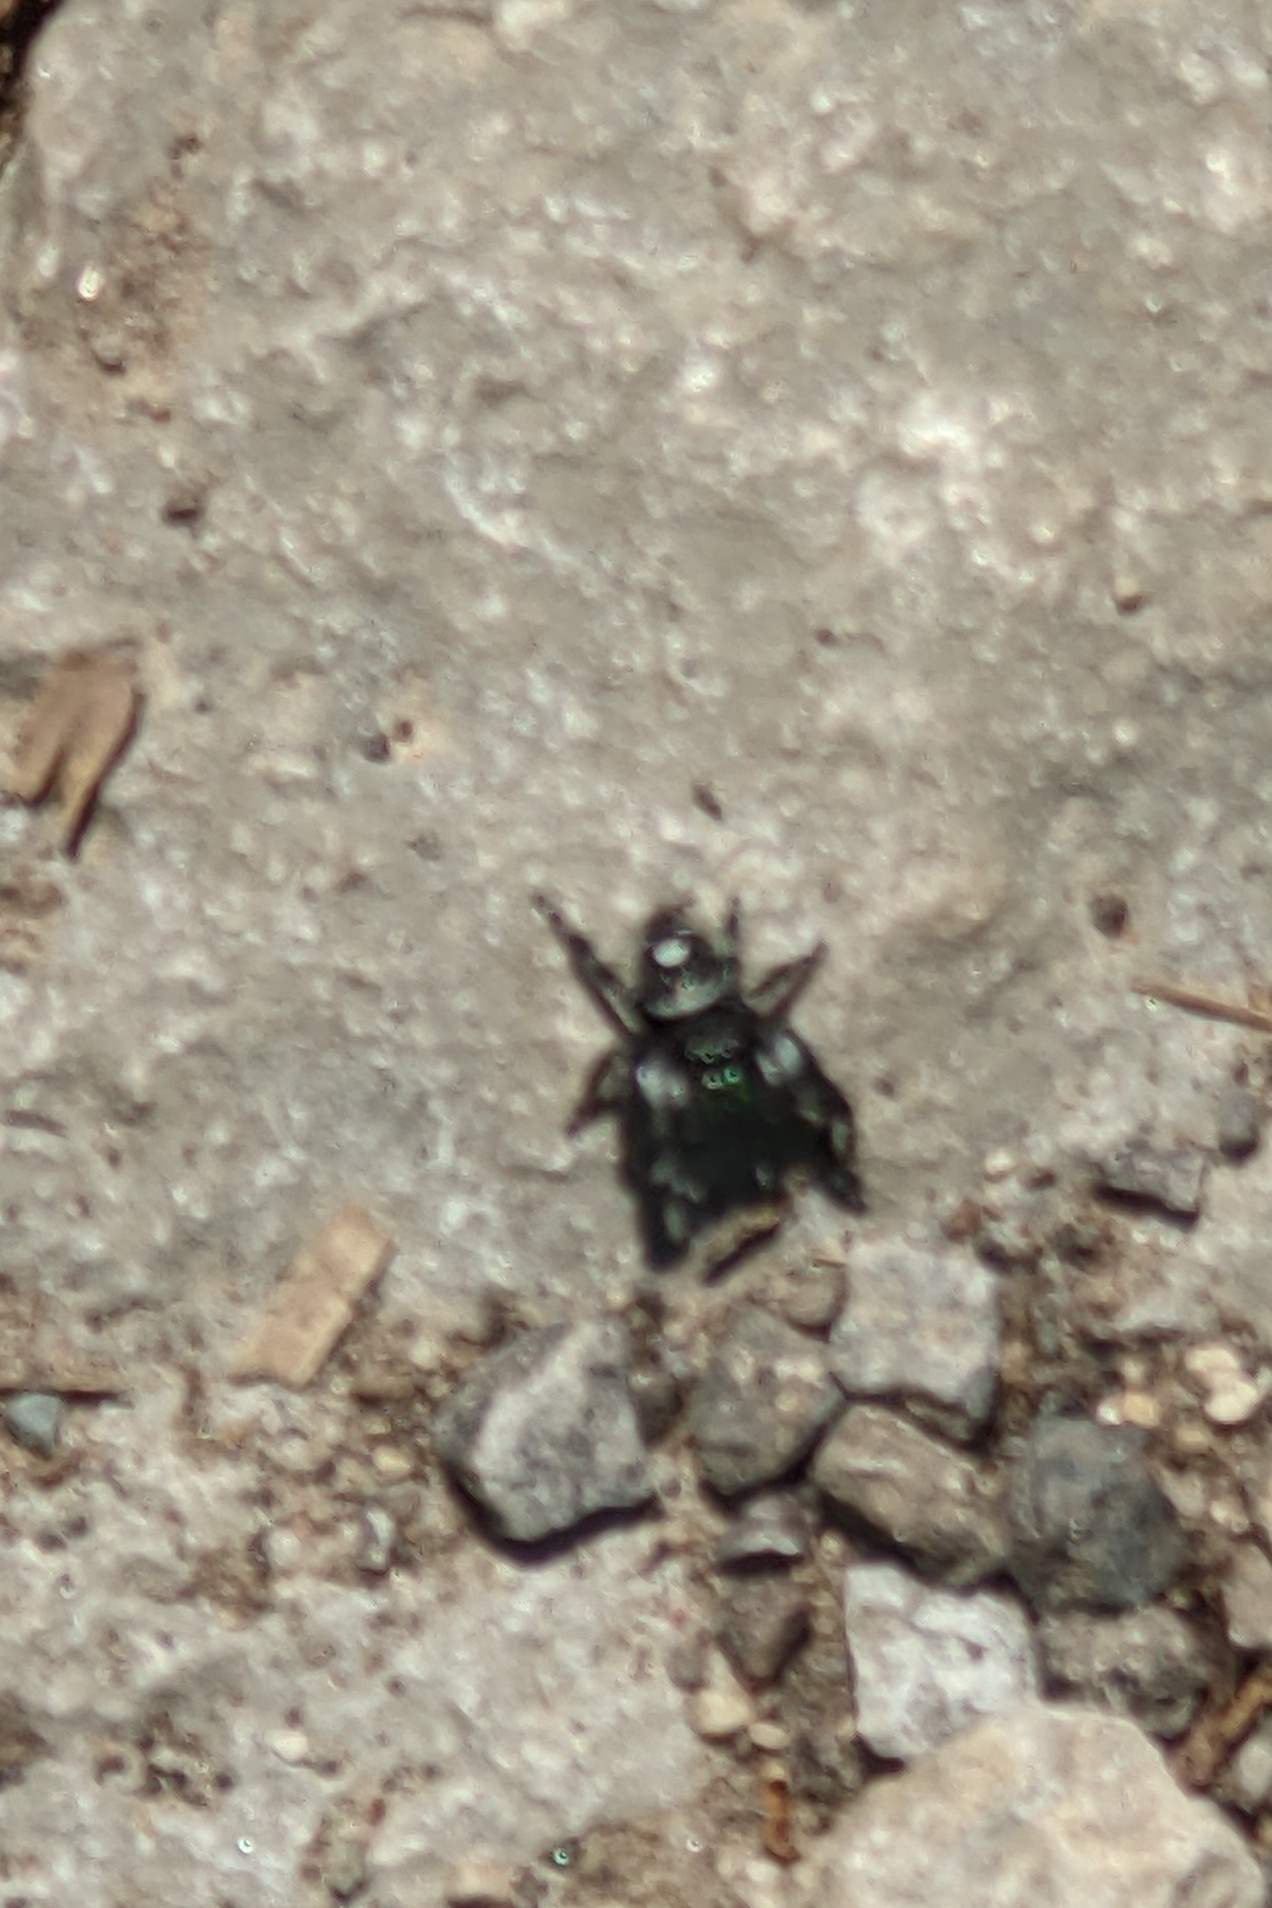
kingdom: Animalia
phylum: Arthropoda
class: Arachnida
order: Araneae
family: Salticidae
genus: Phidippus
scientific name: Phidippus audax
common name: Bold jumper
